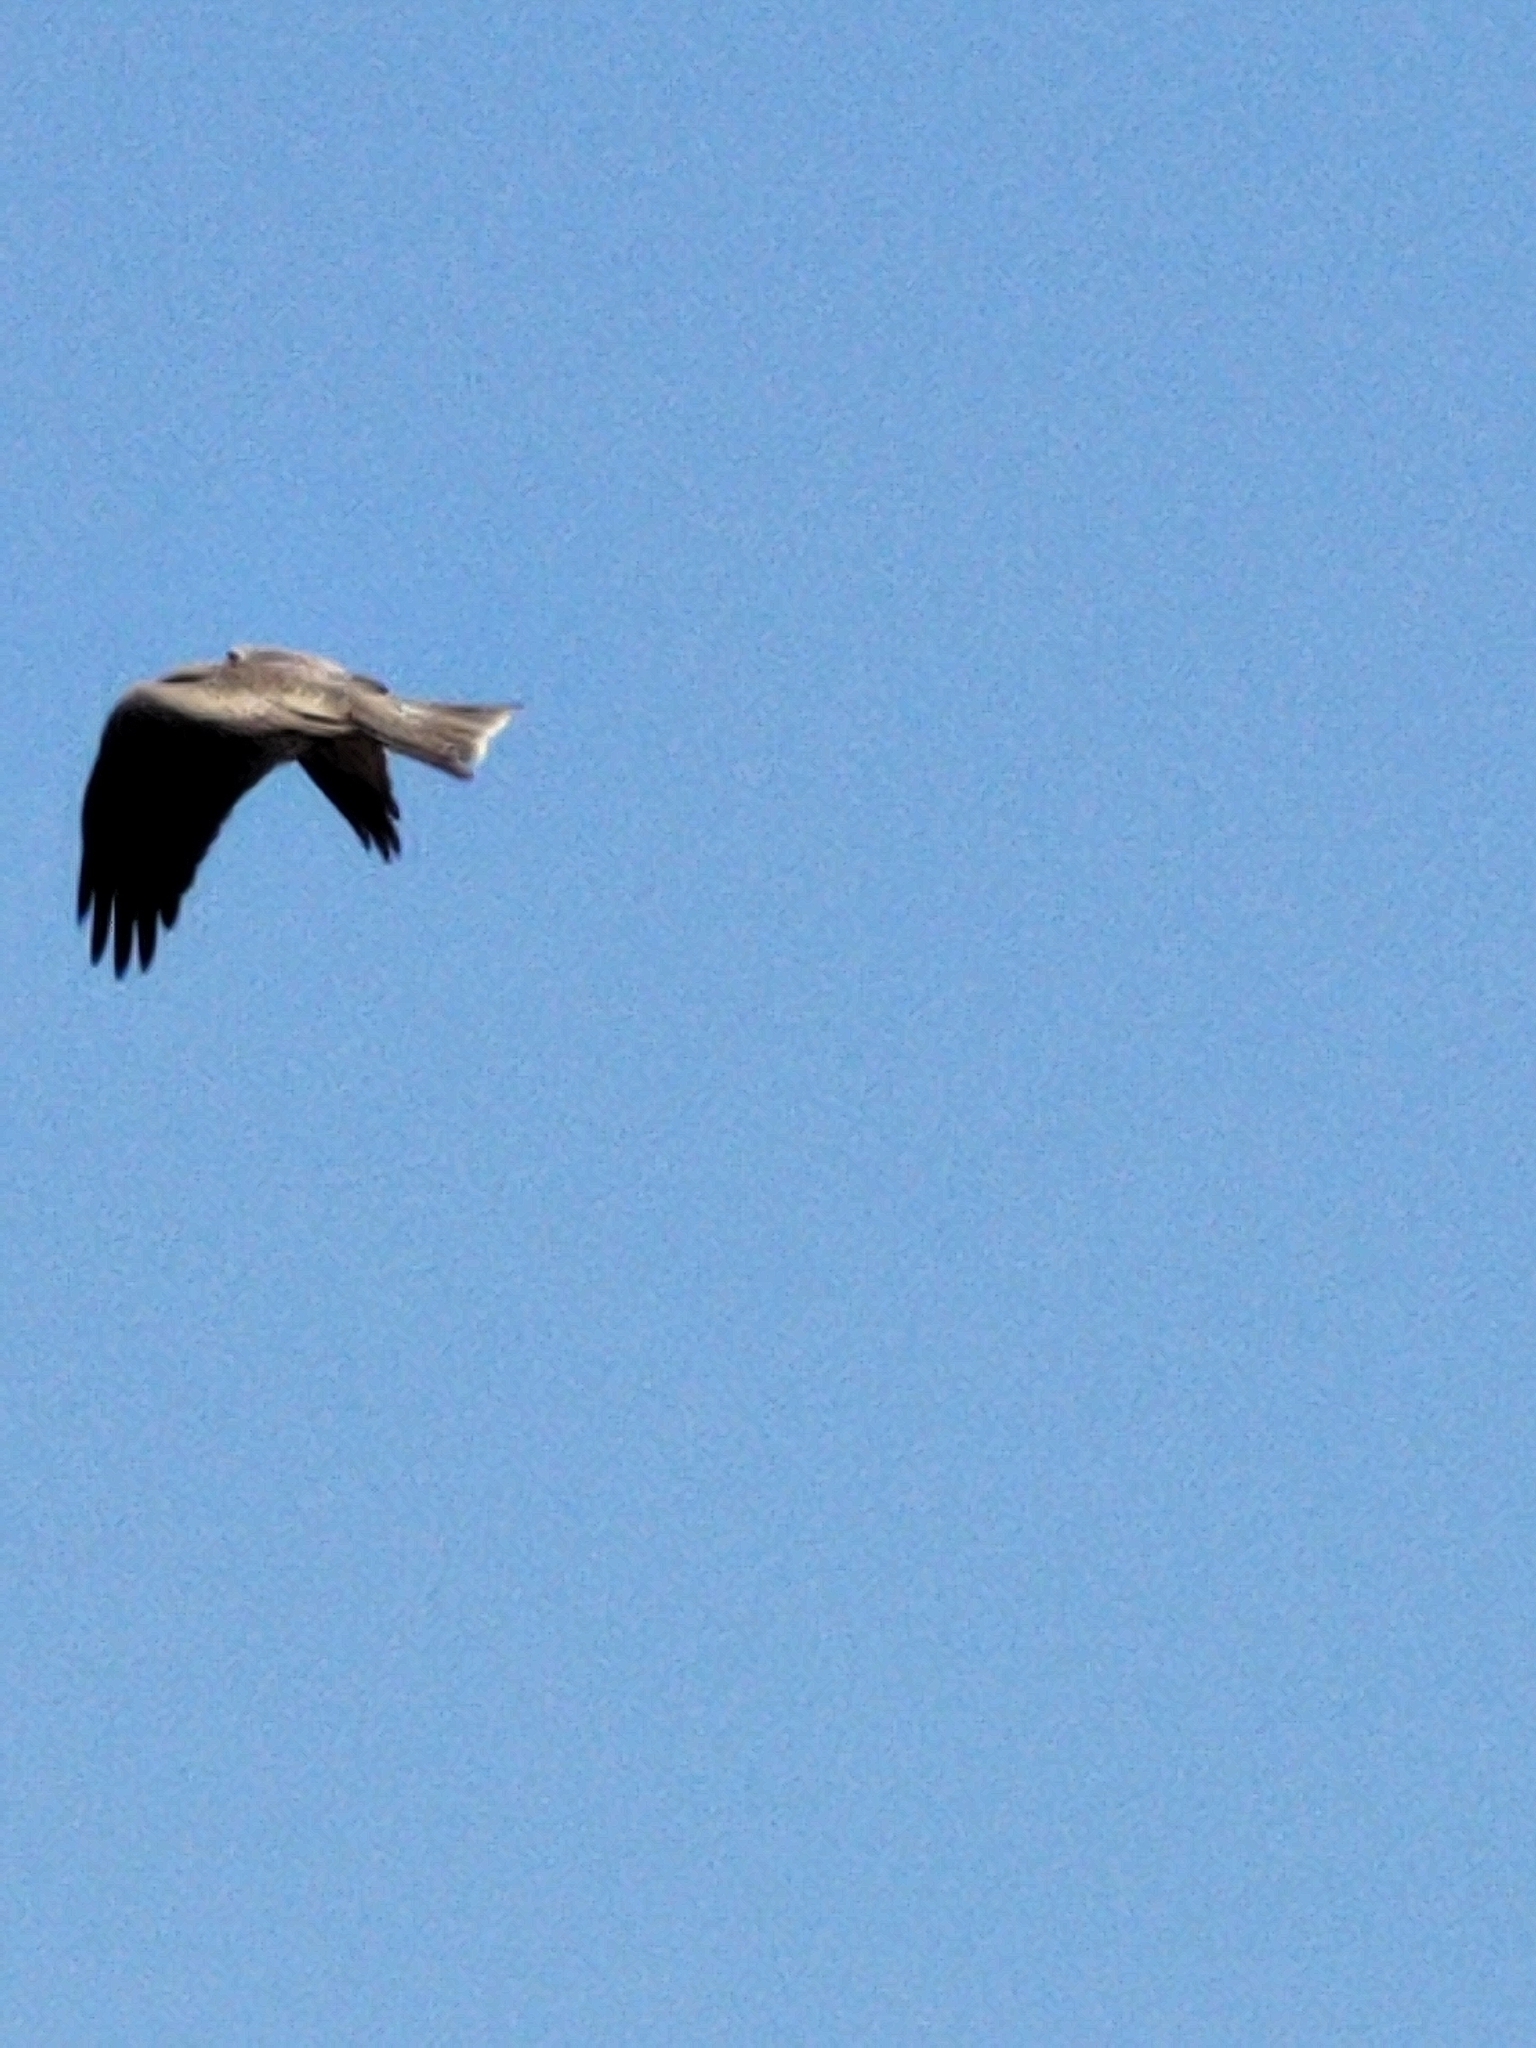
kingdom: Animalia
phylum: Chordata
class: Aves
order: Accipitriformes
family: Accipitridae
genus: Milvus
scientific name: Milvus migrans
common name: Black kite
